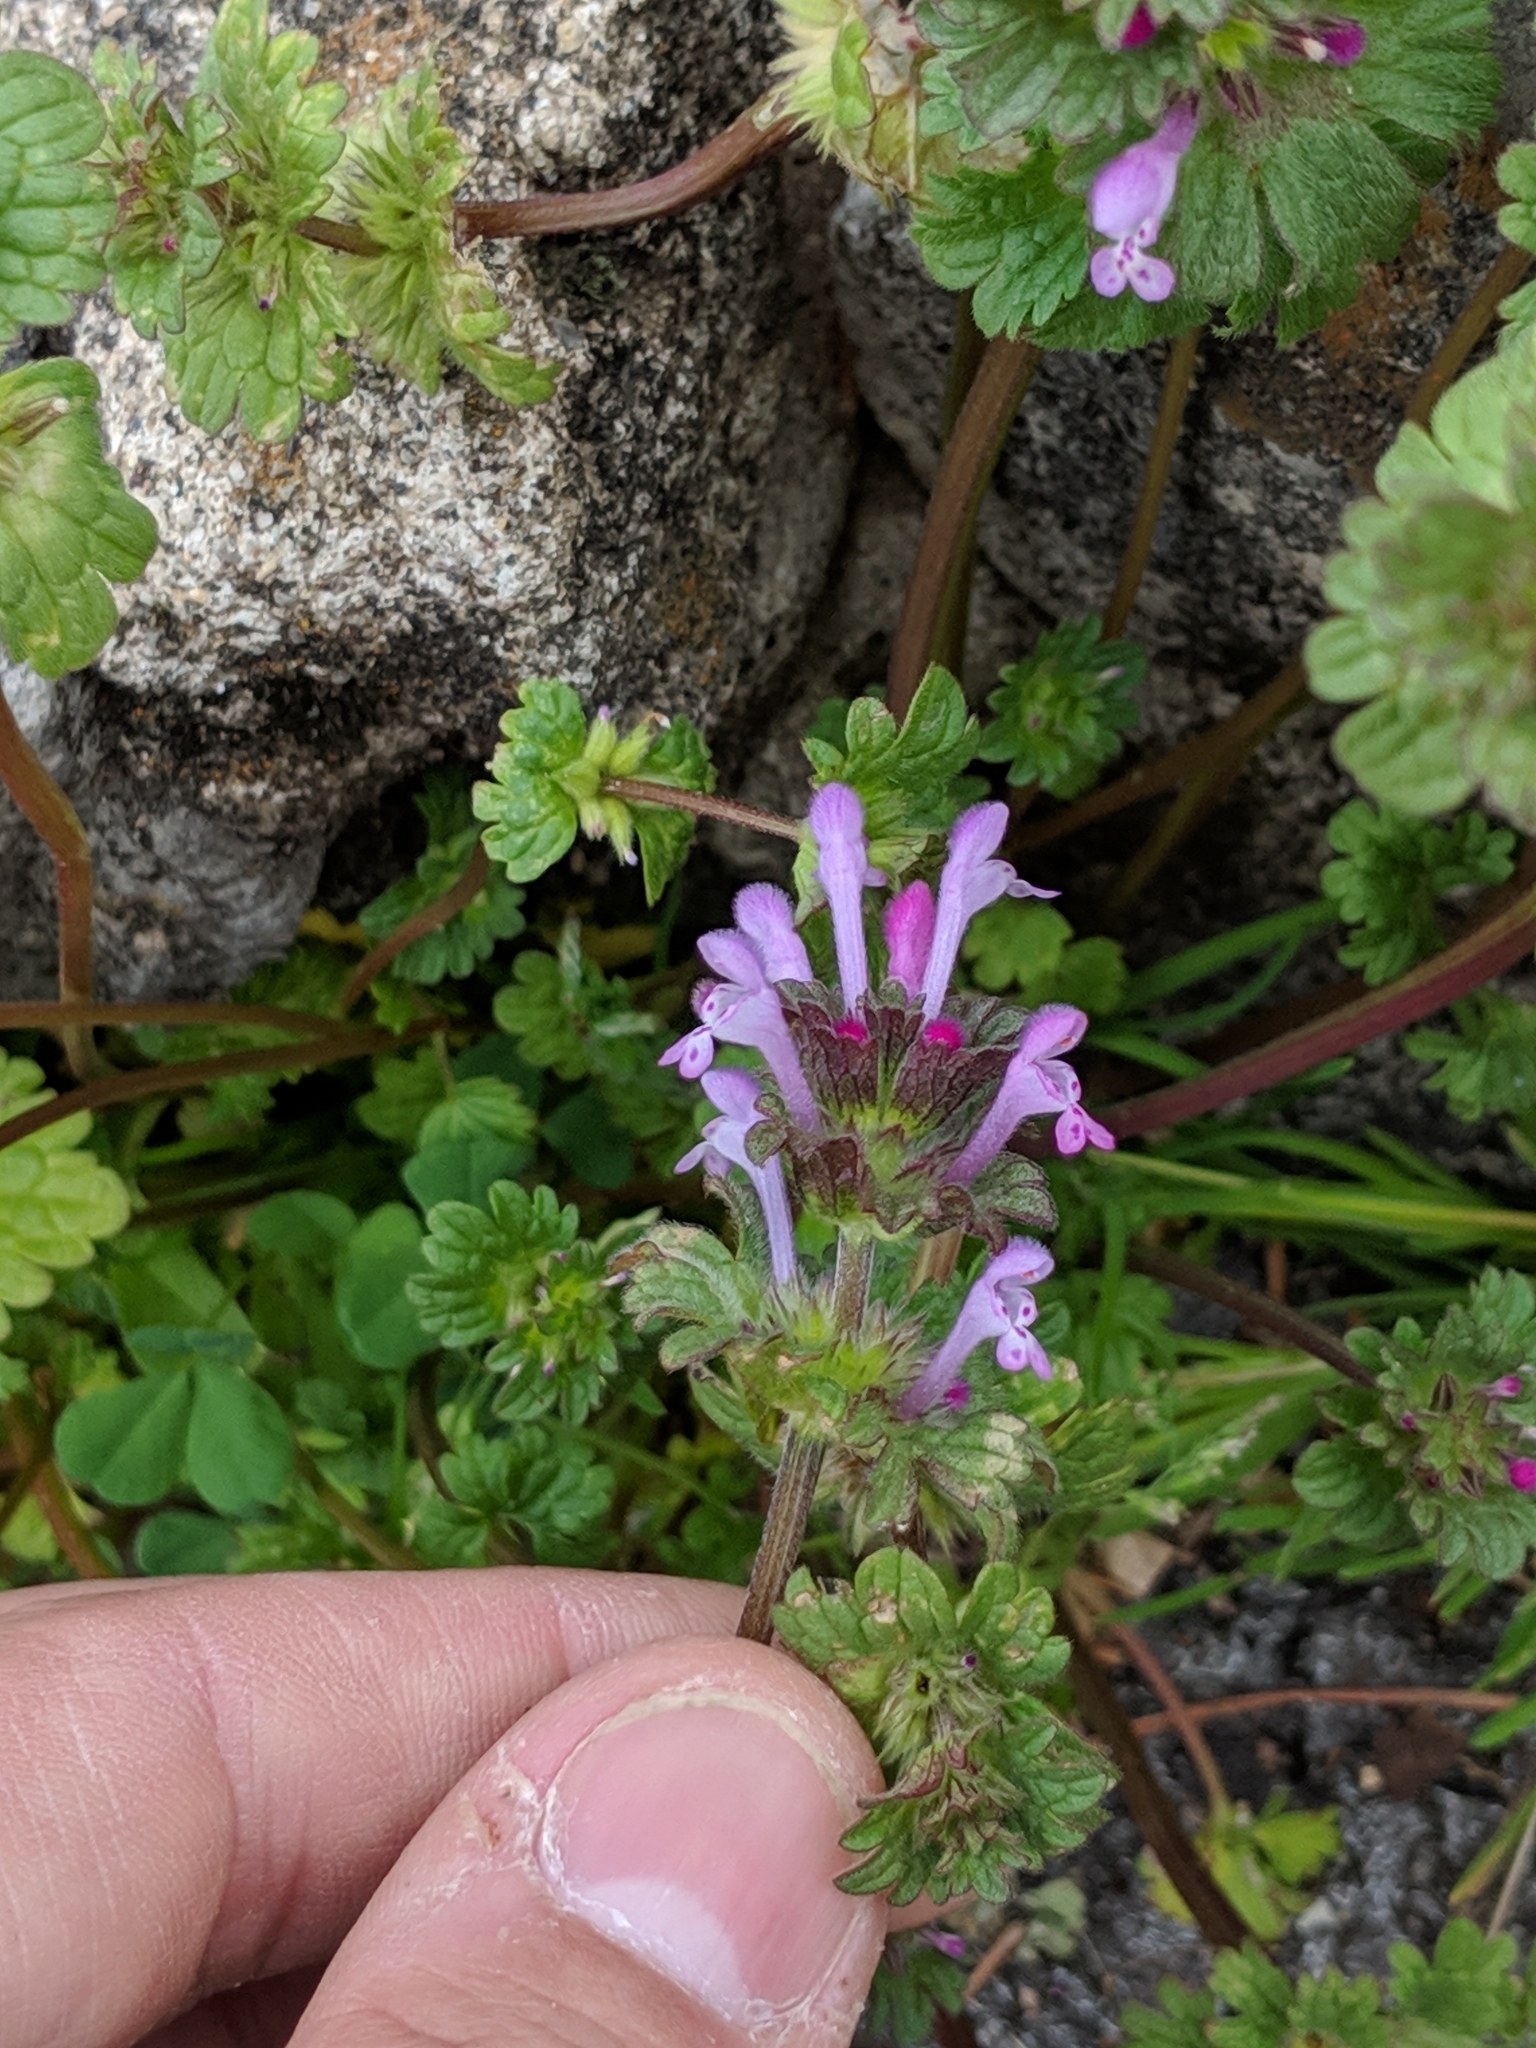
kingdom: Plantae
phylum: Tracheophyta
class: Magnoliopsida
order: Lamiales
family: Lamiaceae
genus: Lamium
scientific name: Lamium amplexicaule
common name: Henbit dead-nettle
